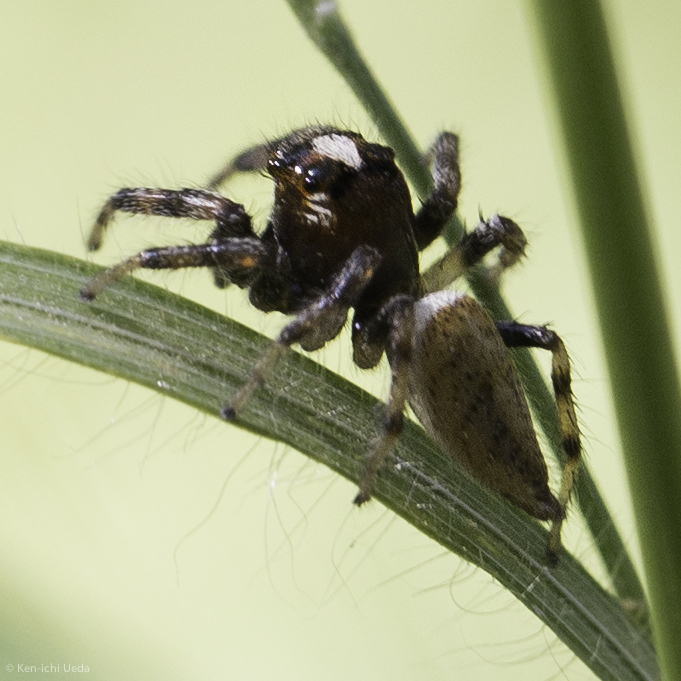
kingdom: Animalia
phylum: Arthropoda
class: Arachnida
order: Araneae
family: Salticidae
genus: Colonus
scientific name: Colonus hesperus
